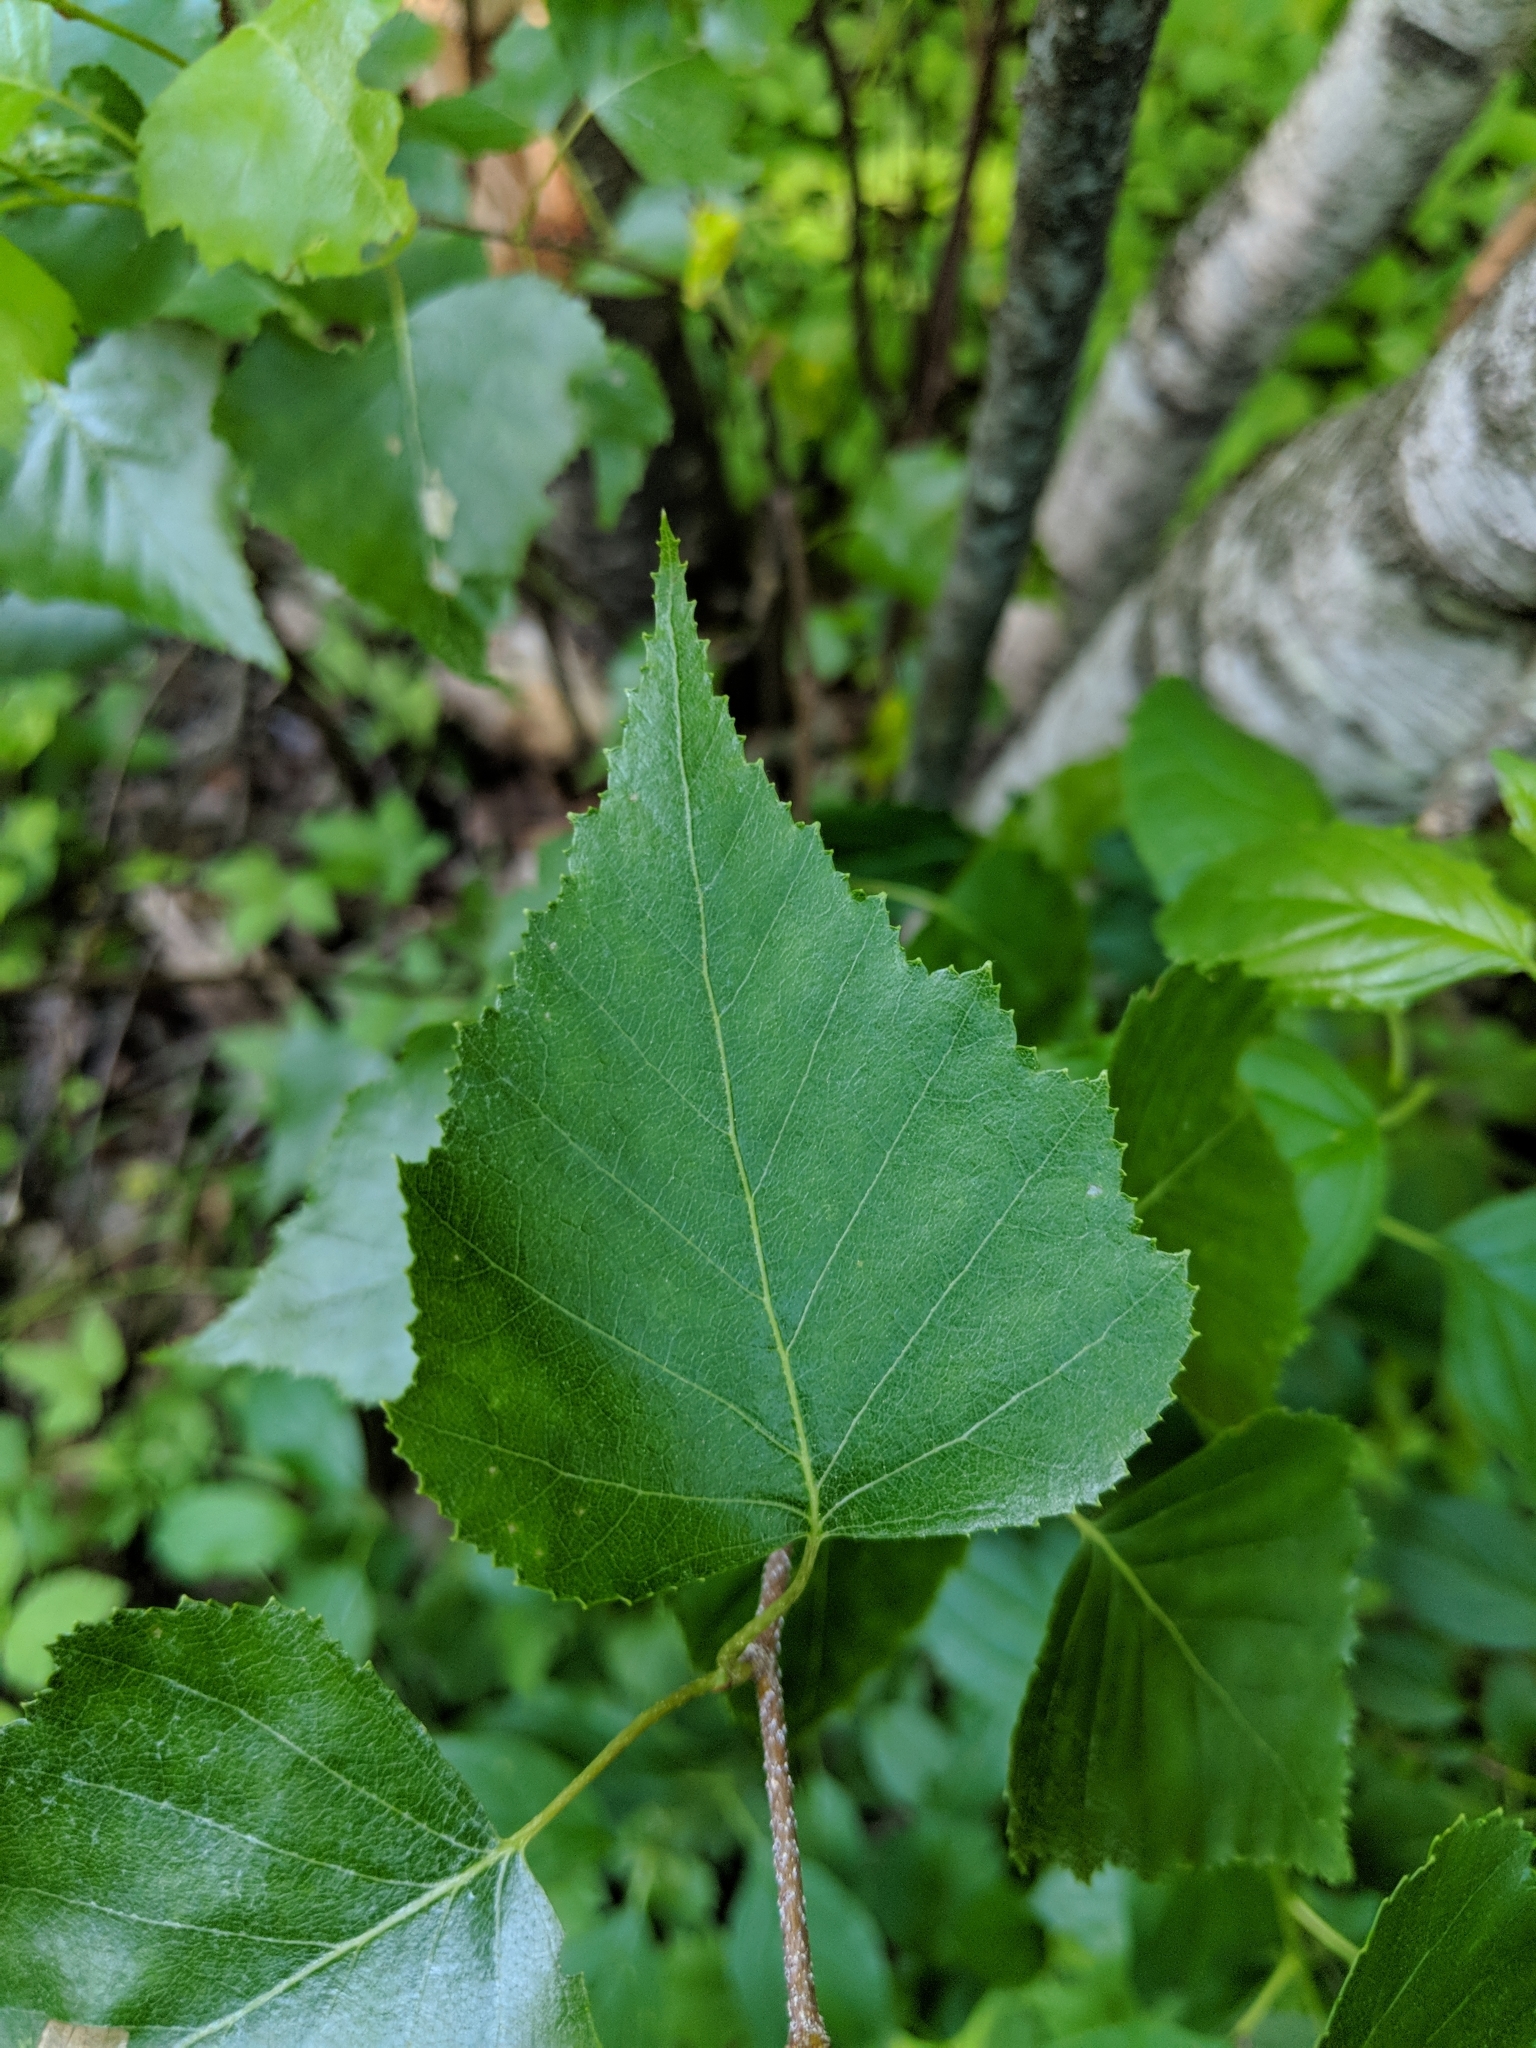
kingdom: Plantae
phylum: Tracheophyta
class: Magnoliopsida
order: Fagales
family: Betulaceae
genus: Betula
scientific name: Betula populifolia
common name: Fire birch
